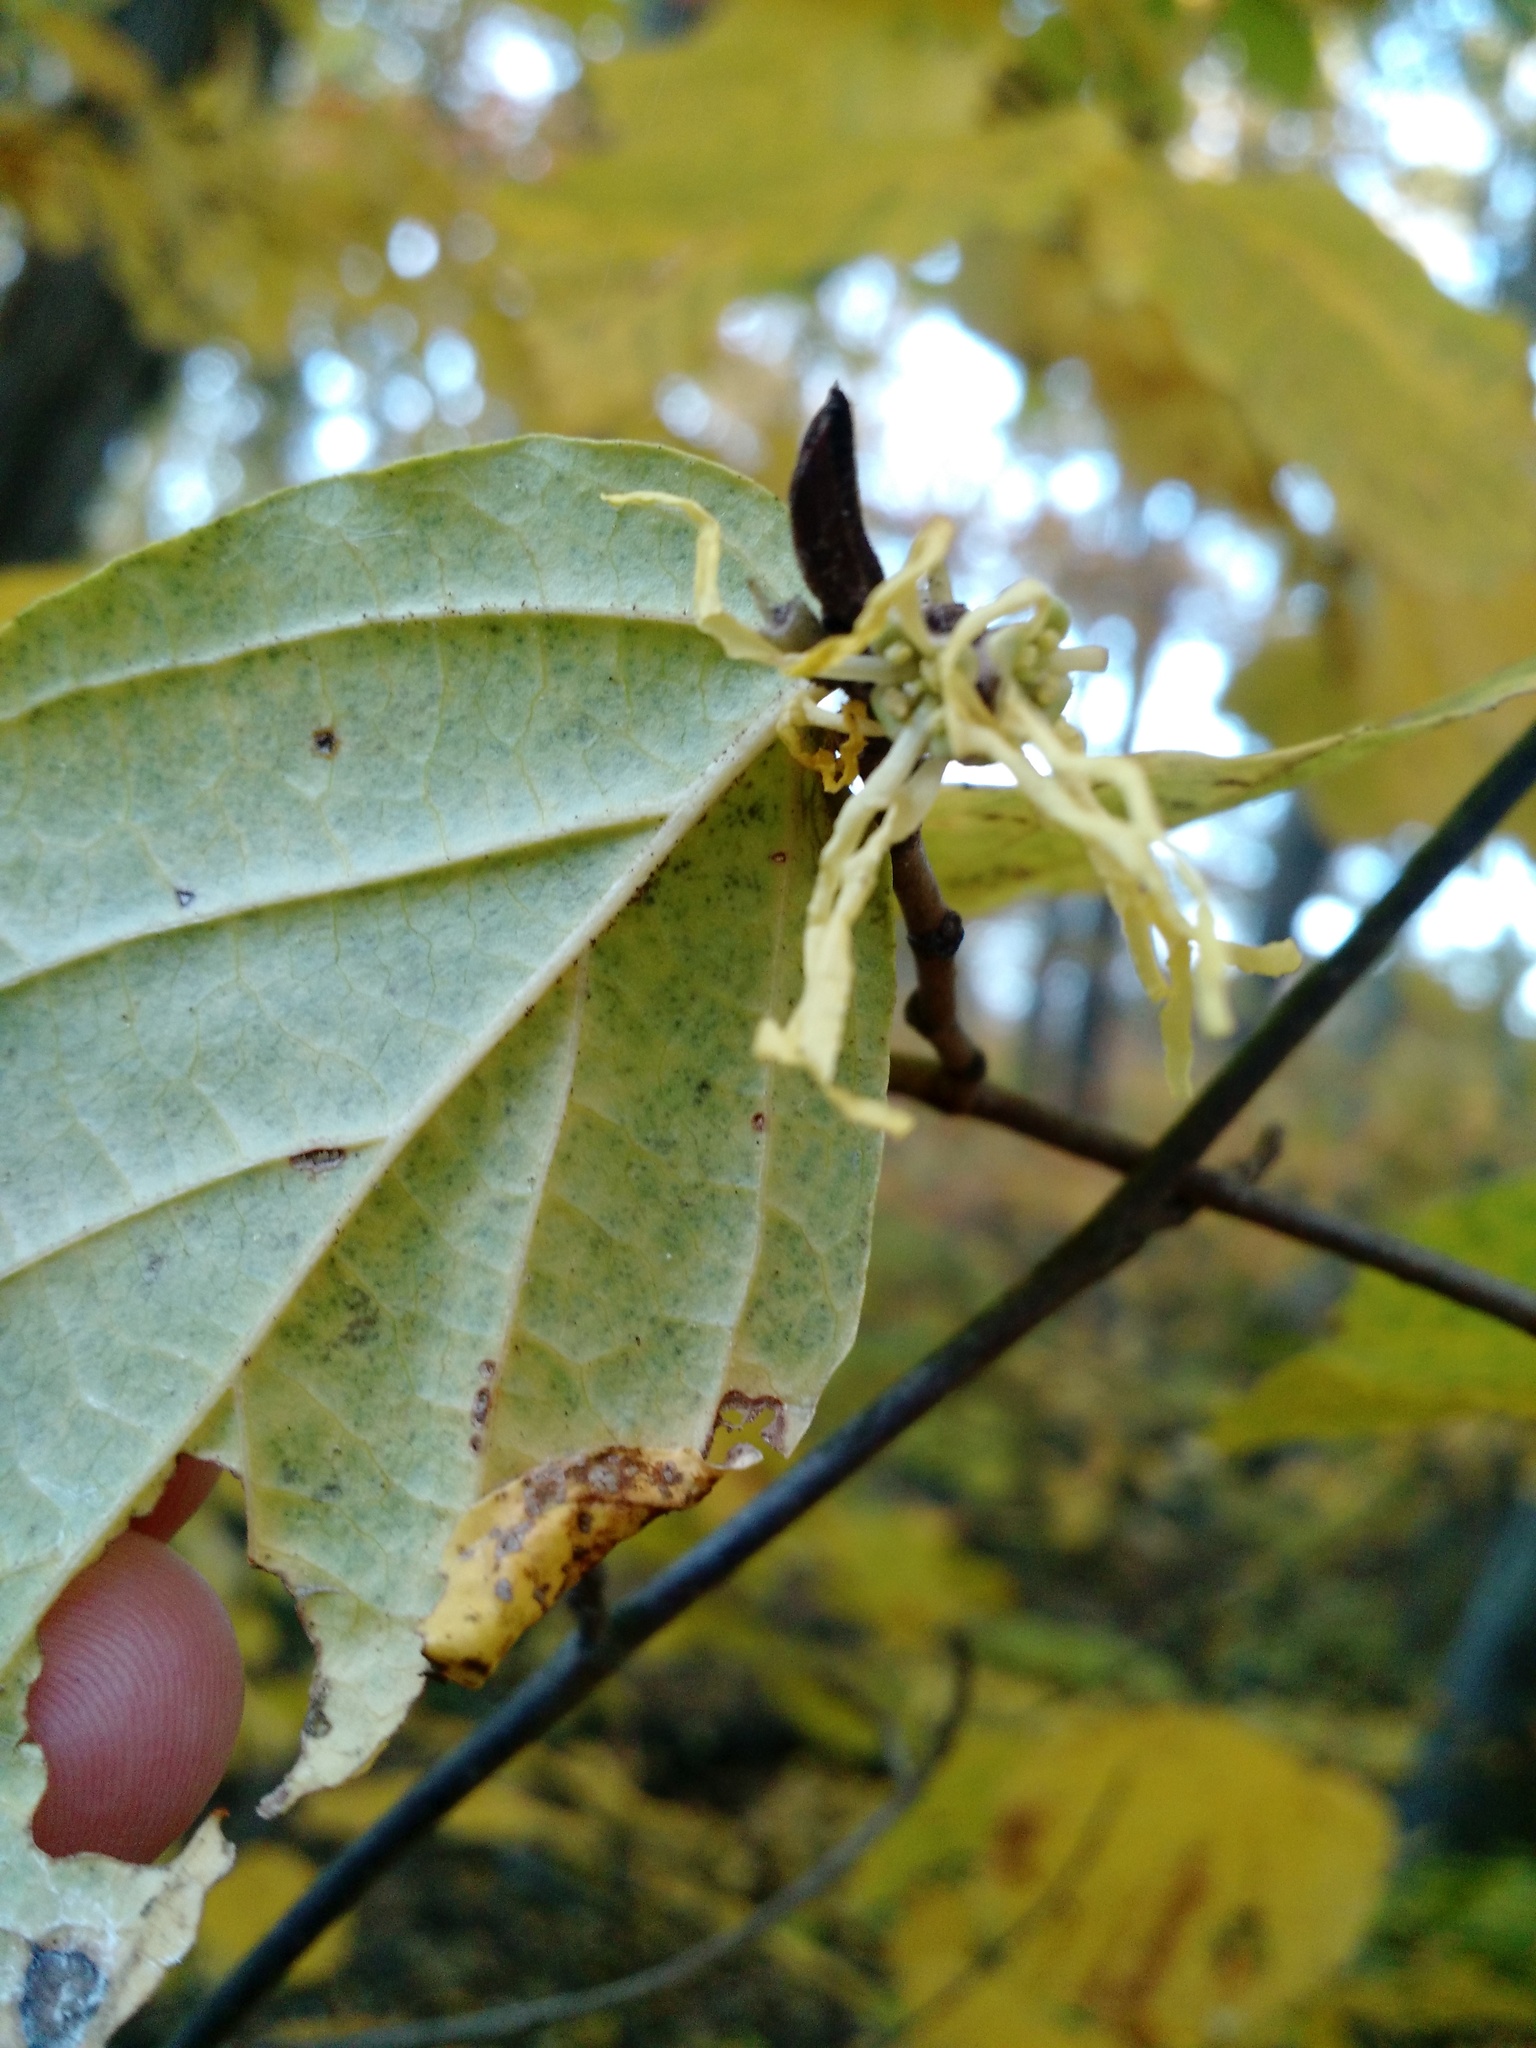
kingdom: Plantae
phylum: Tracheophyta
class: Magnoliopsida
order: Saxifragales
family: Hamamelidaceae
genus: Hamamelis
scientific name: Hamamelis virginiana
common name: Witch-hazel
